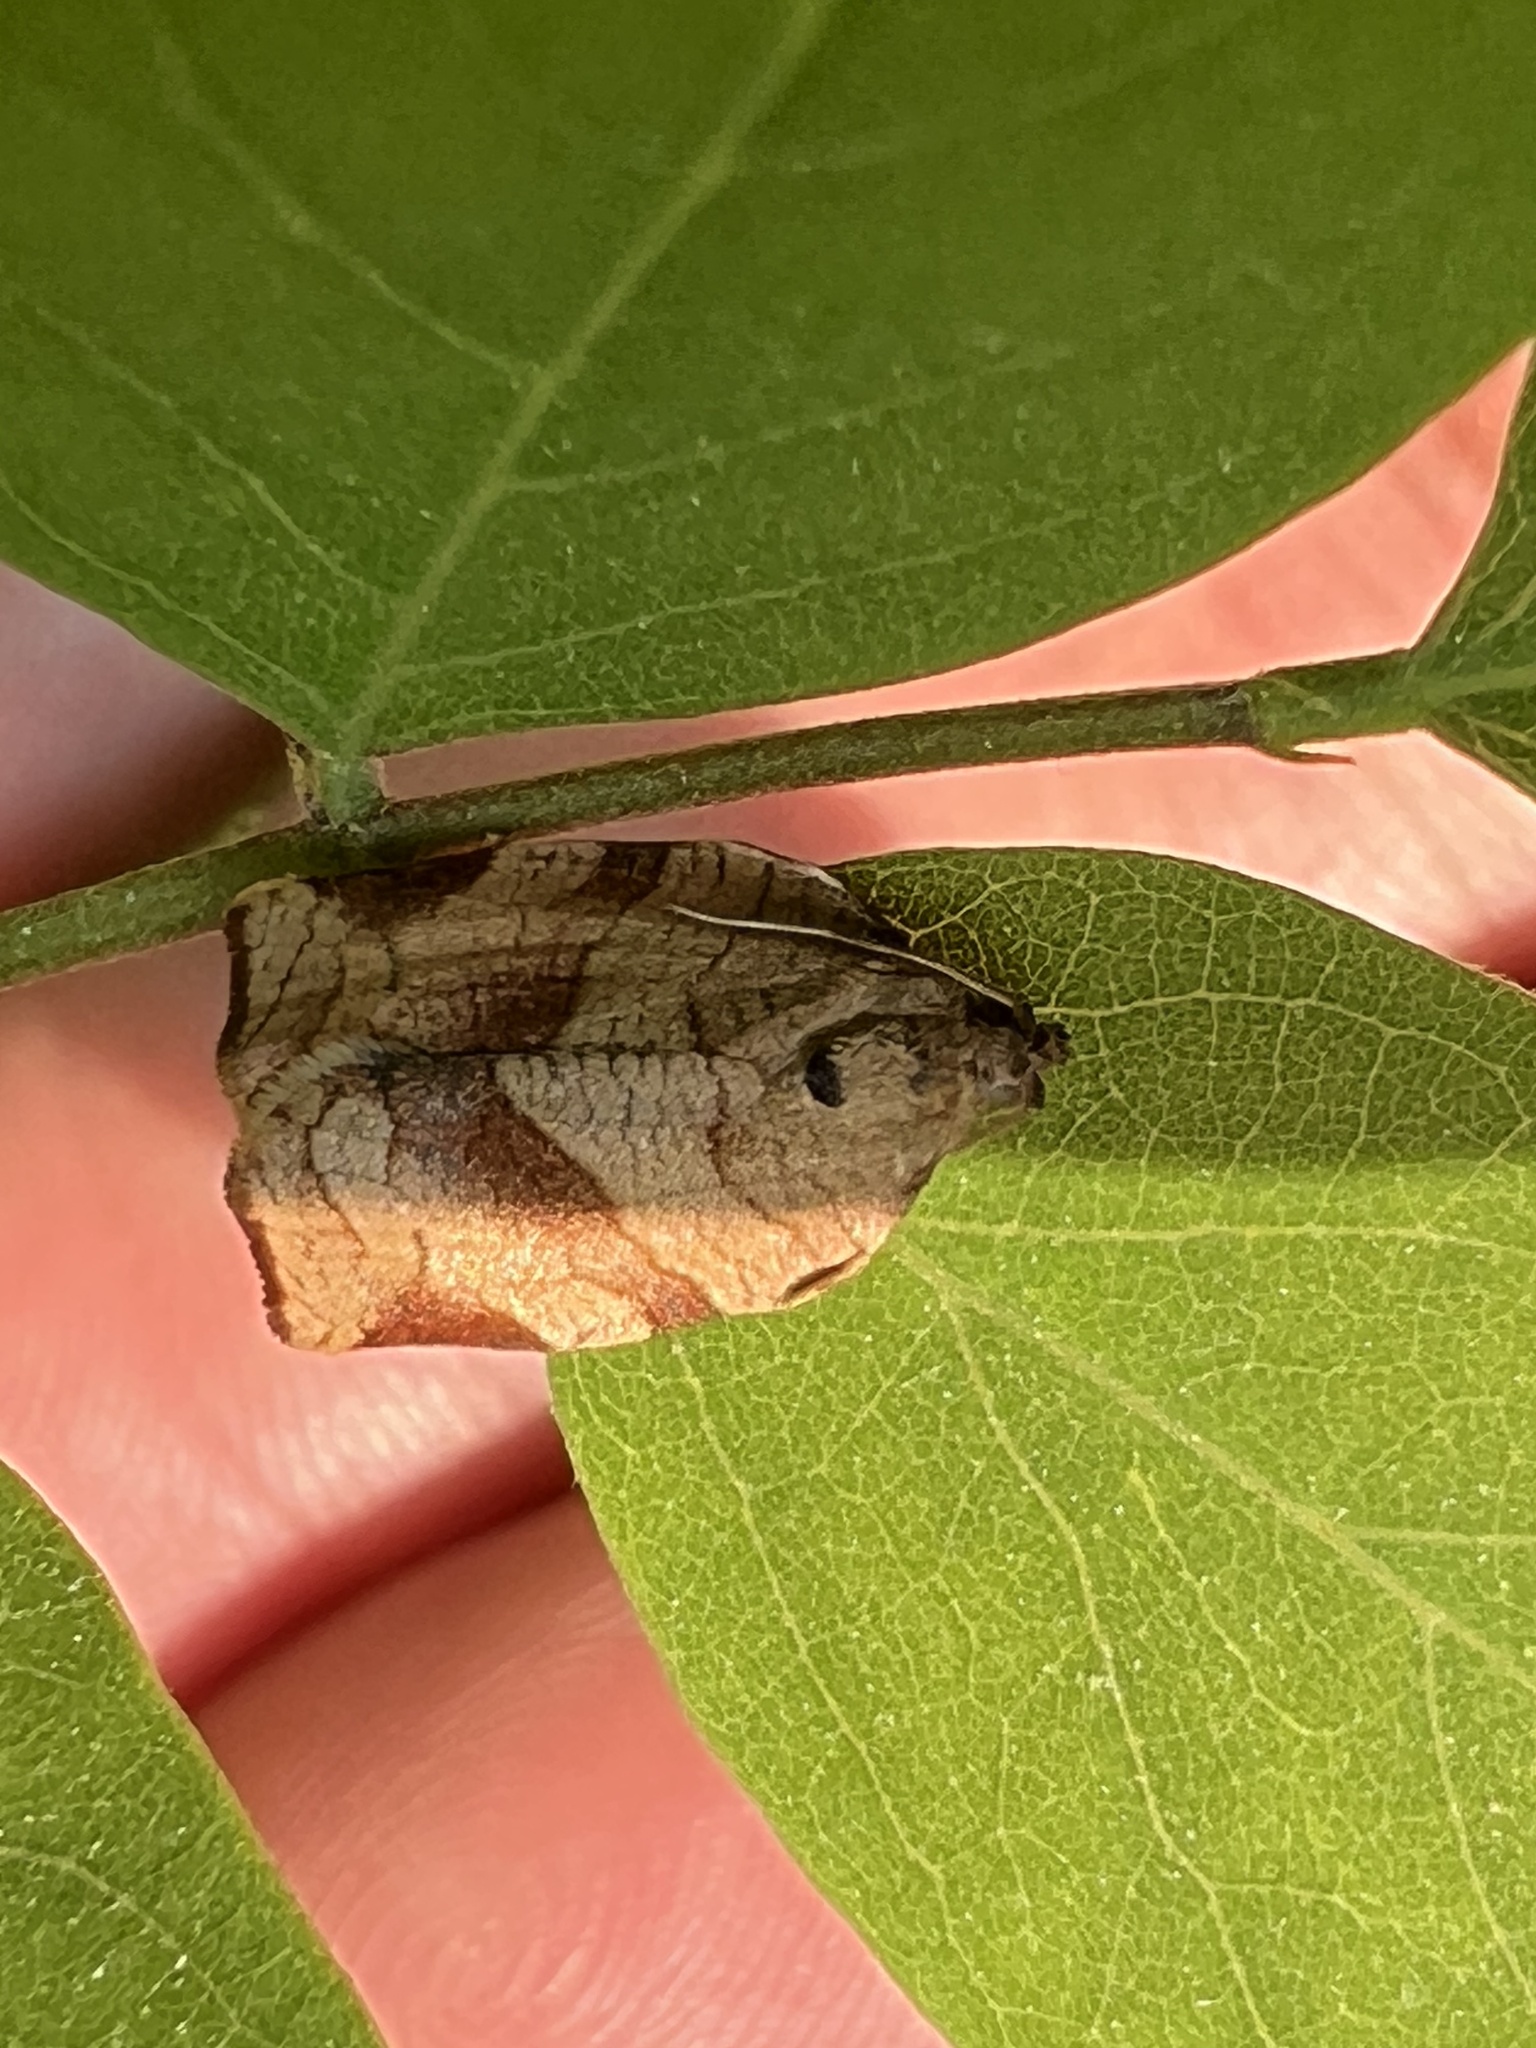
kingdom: Animalia
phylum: Arthropoda
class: Insecta
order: Lepidoptera
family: Tortricidae
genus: Choristoneura
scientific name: Choristoneura rosaceana
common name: Oblique-banded leafroller moth
